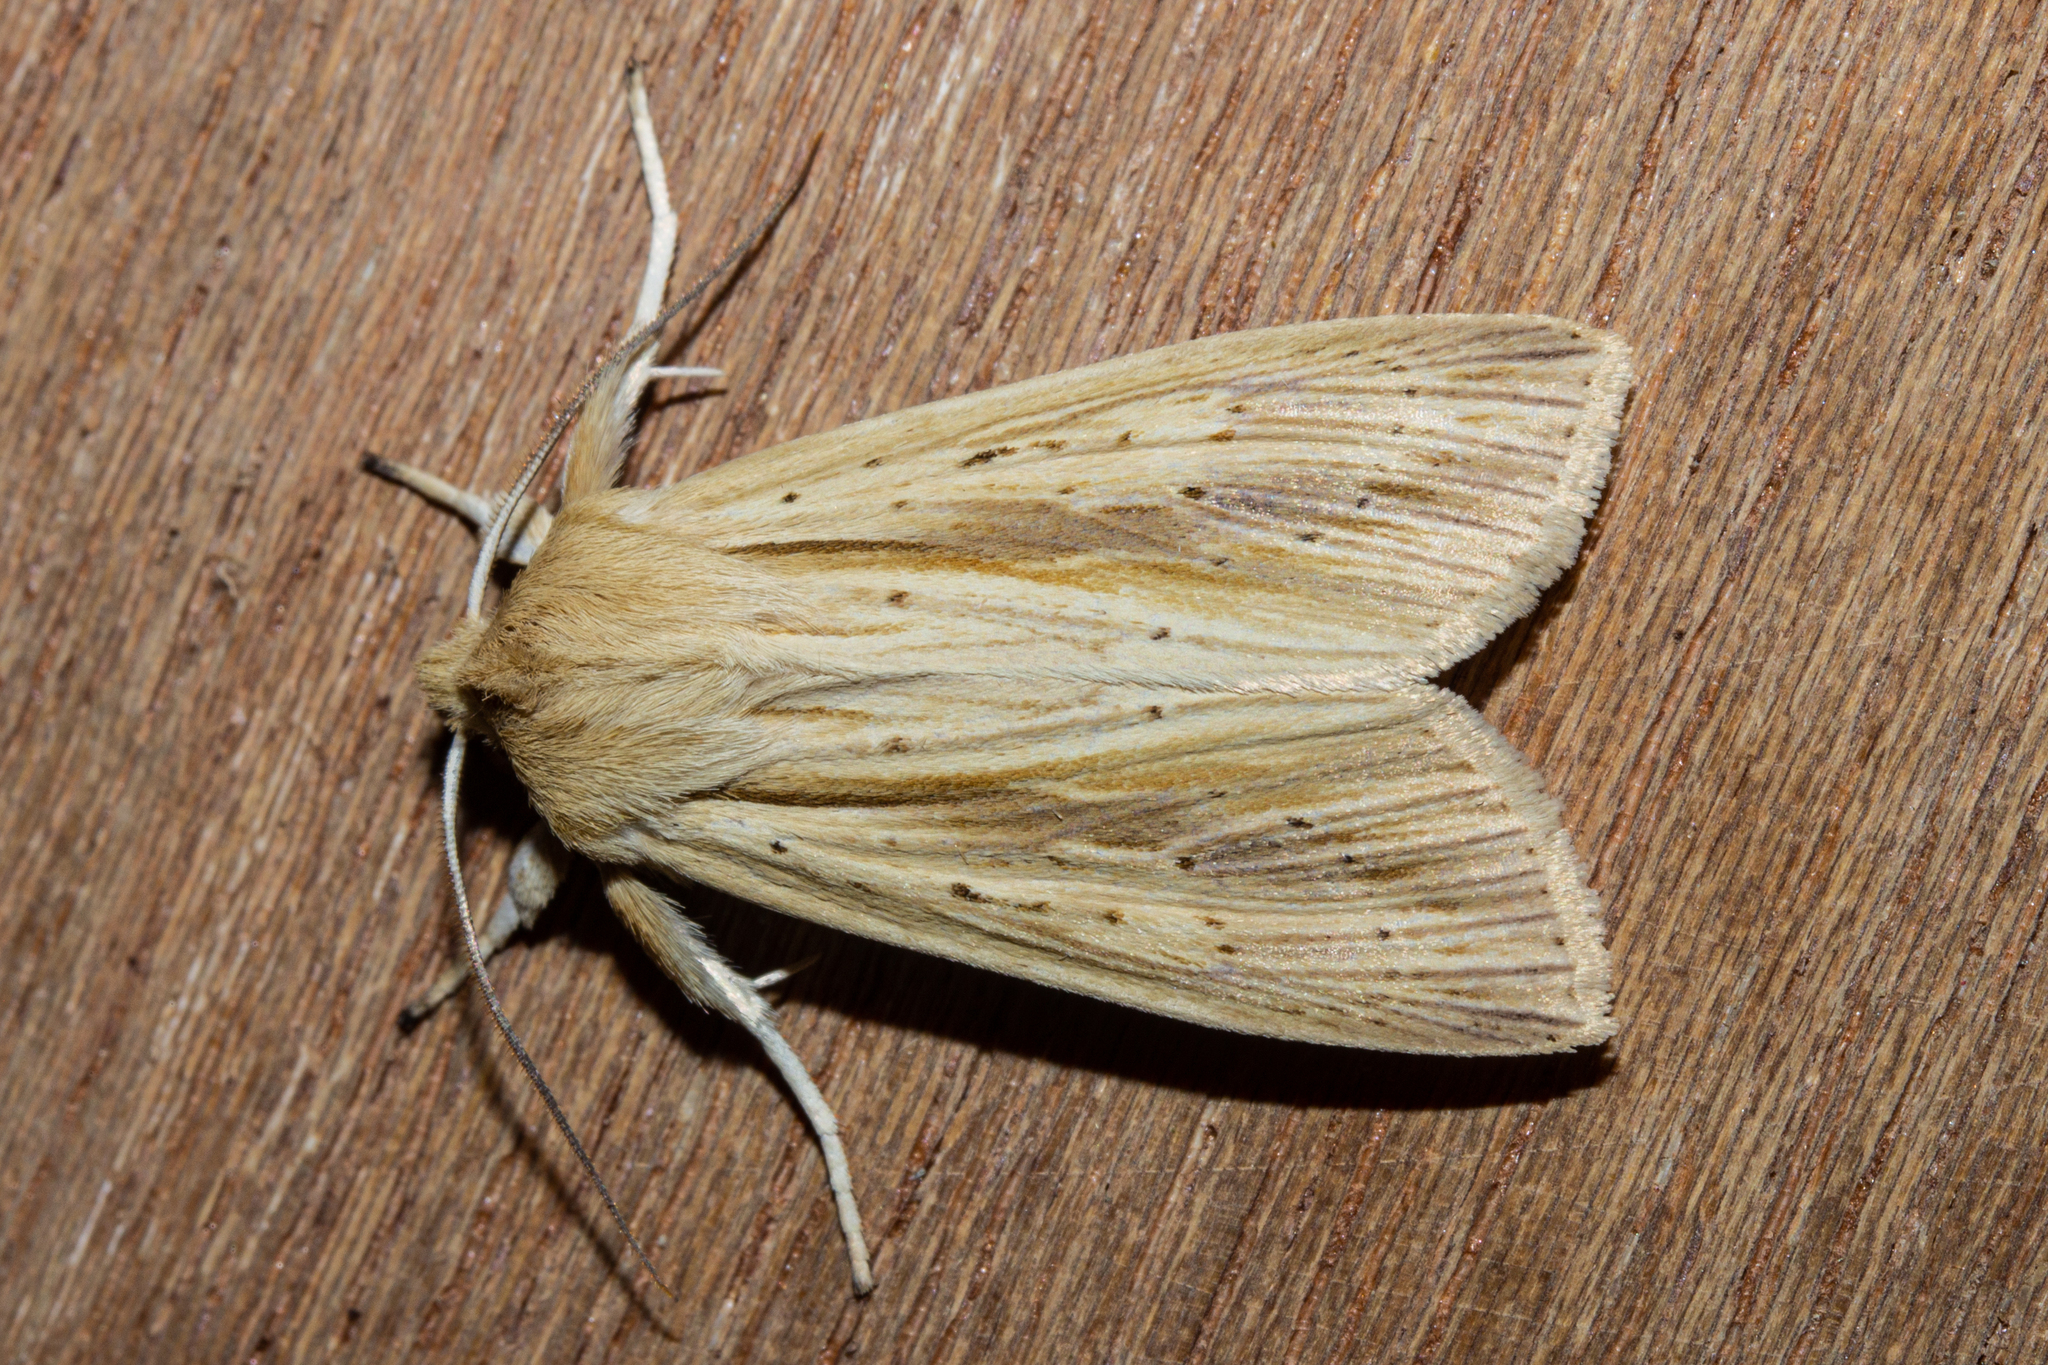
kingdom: Animalia
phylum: Arthropoda
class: Insecta
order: Lepidoptera
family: Noctuidae
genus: Ichneutica
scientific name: Ichneutica semivittata
